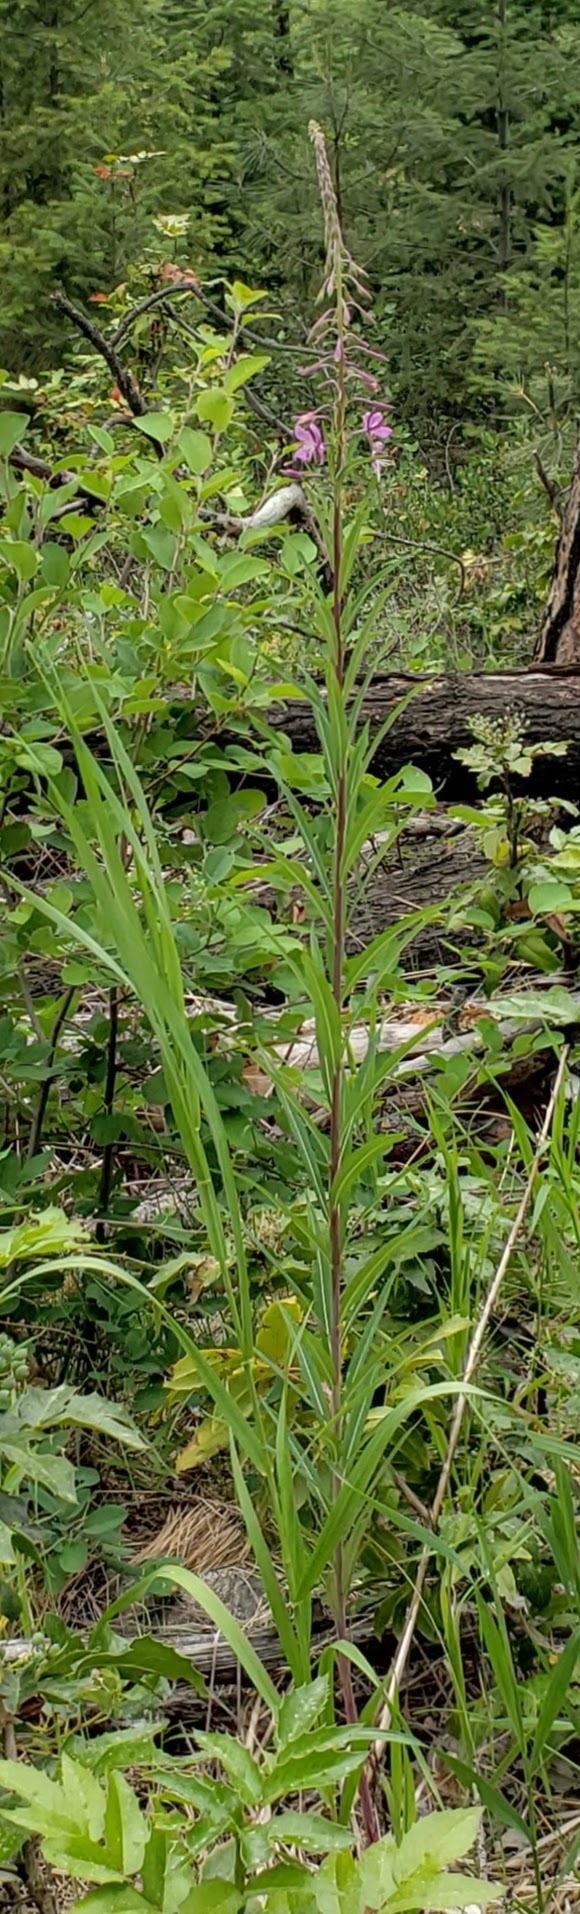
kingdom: Plantae
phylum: Tracheophyta
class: Magnoliopsida
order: Myrtales
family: Onagraceae
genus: Chamaenerion
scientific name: Chamaenerion angustifolium
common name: Fireweed
